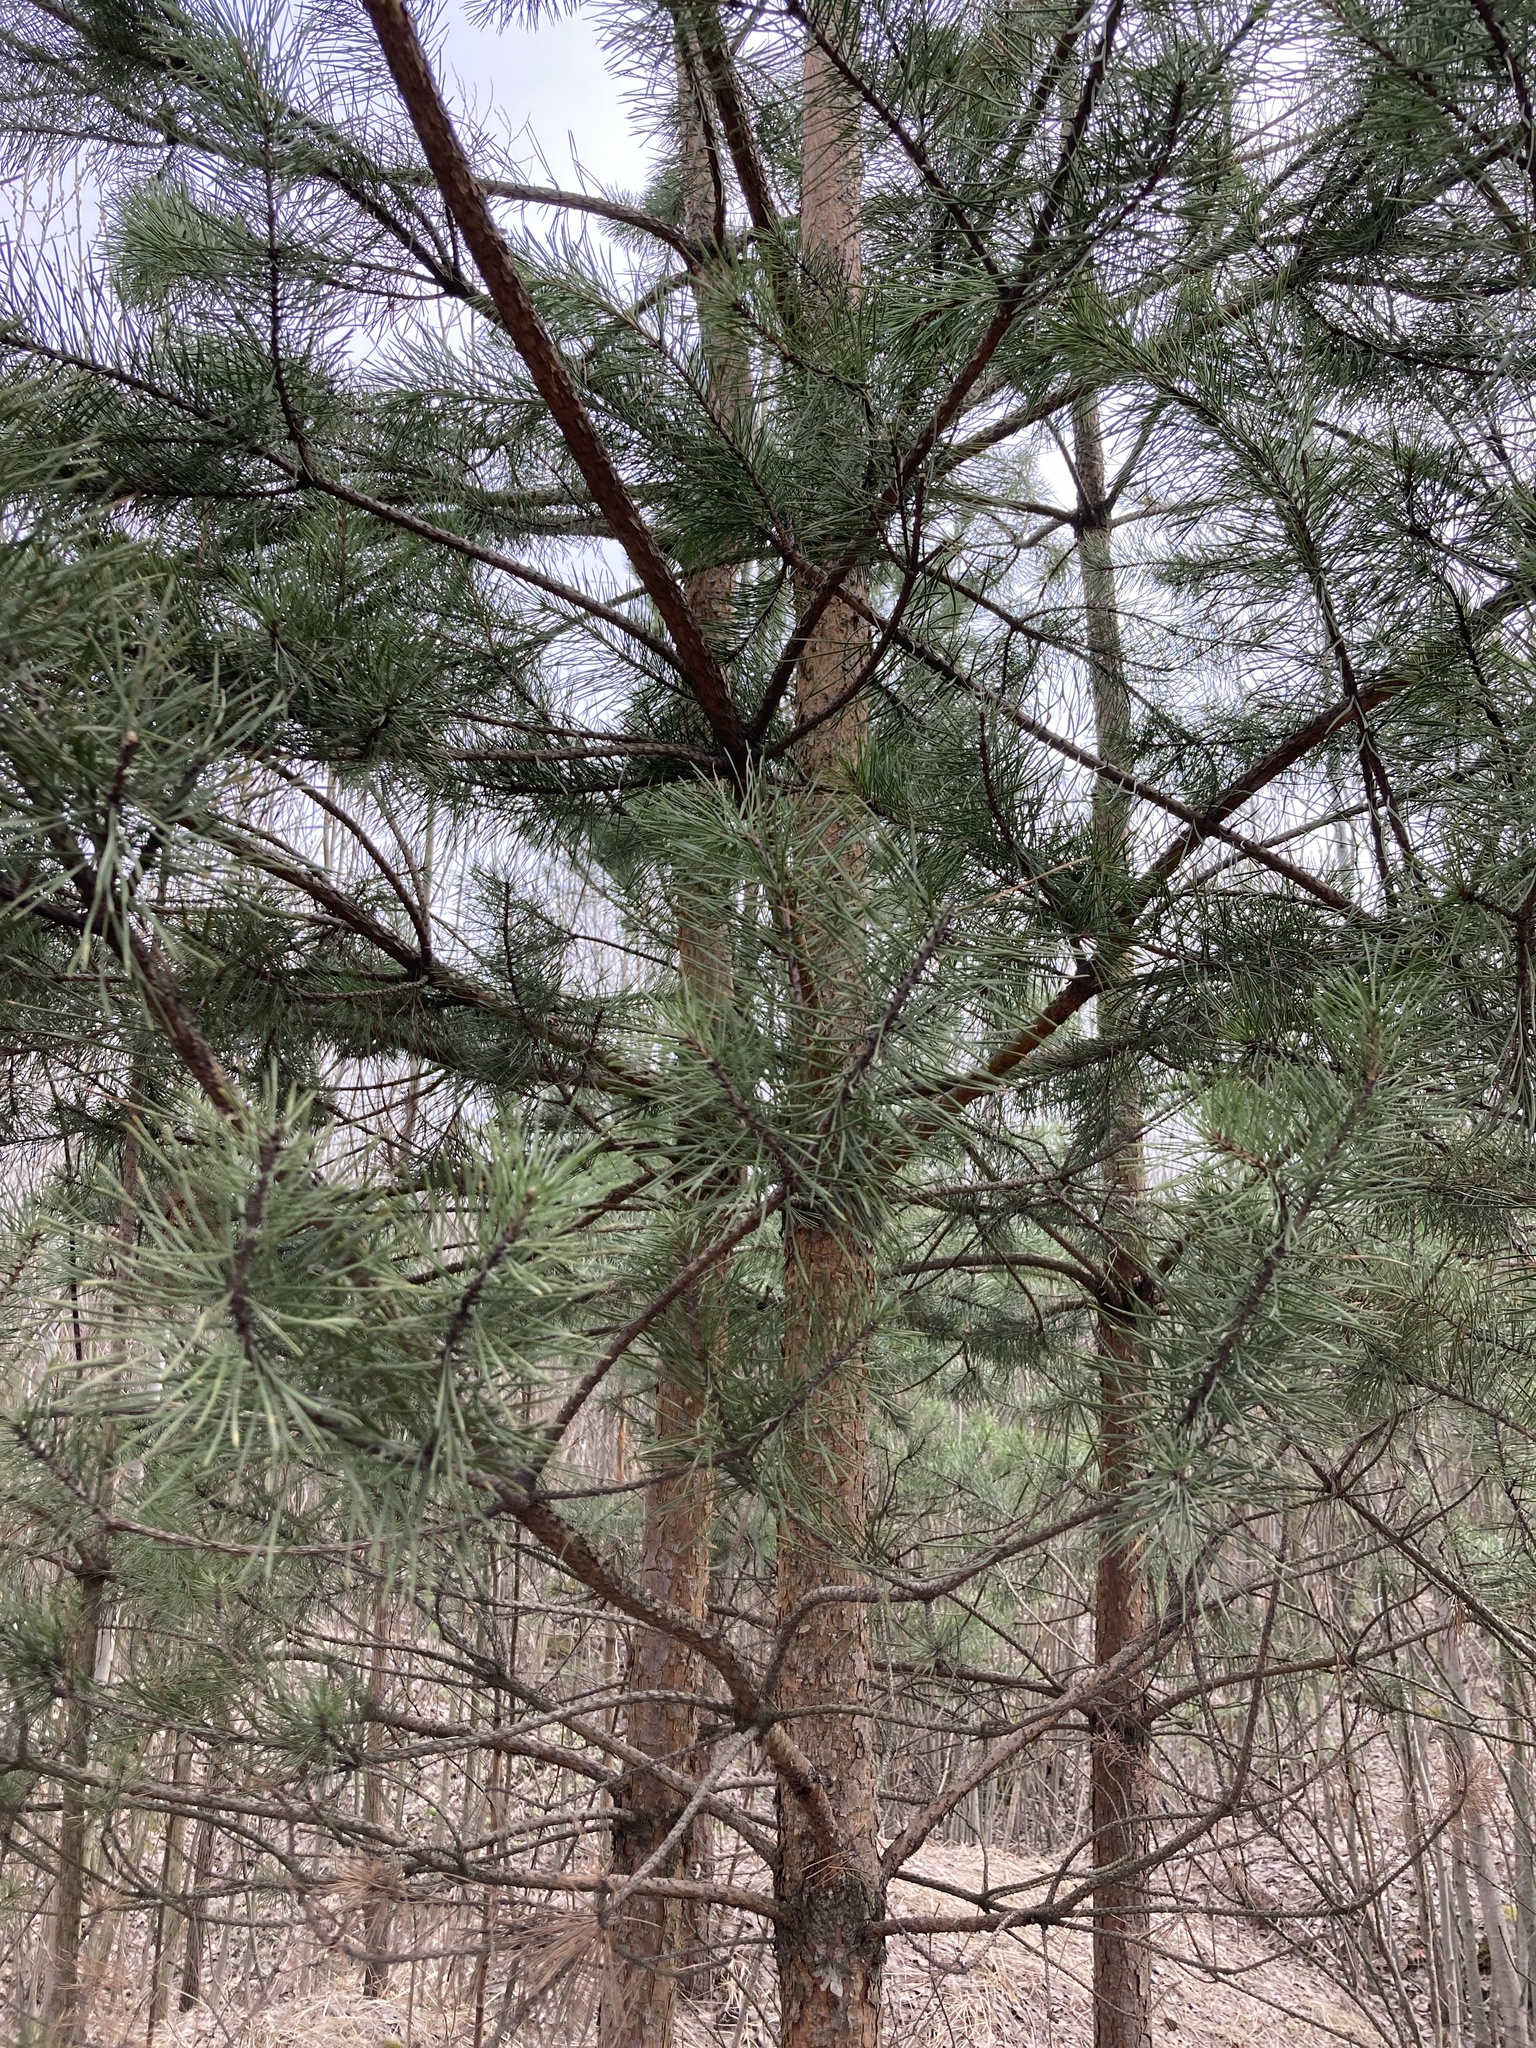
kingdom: Plantae
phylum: Tracheophyta
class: Pinopsida
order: Pinales
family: Pinaceae
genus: Pinus
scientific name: Pinus sylvestris
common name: Scots pine
